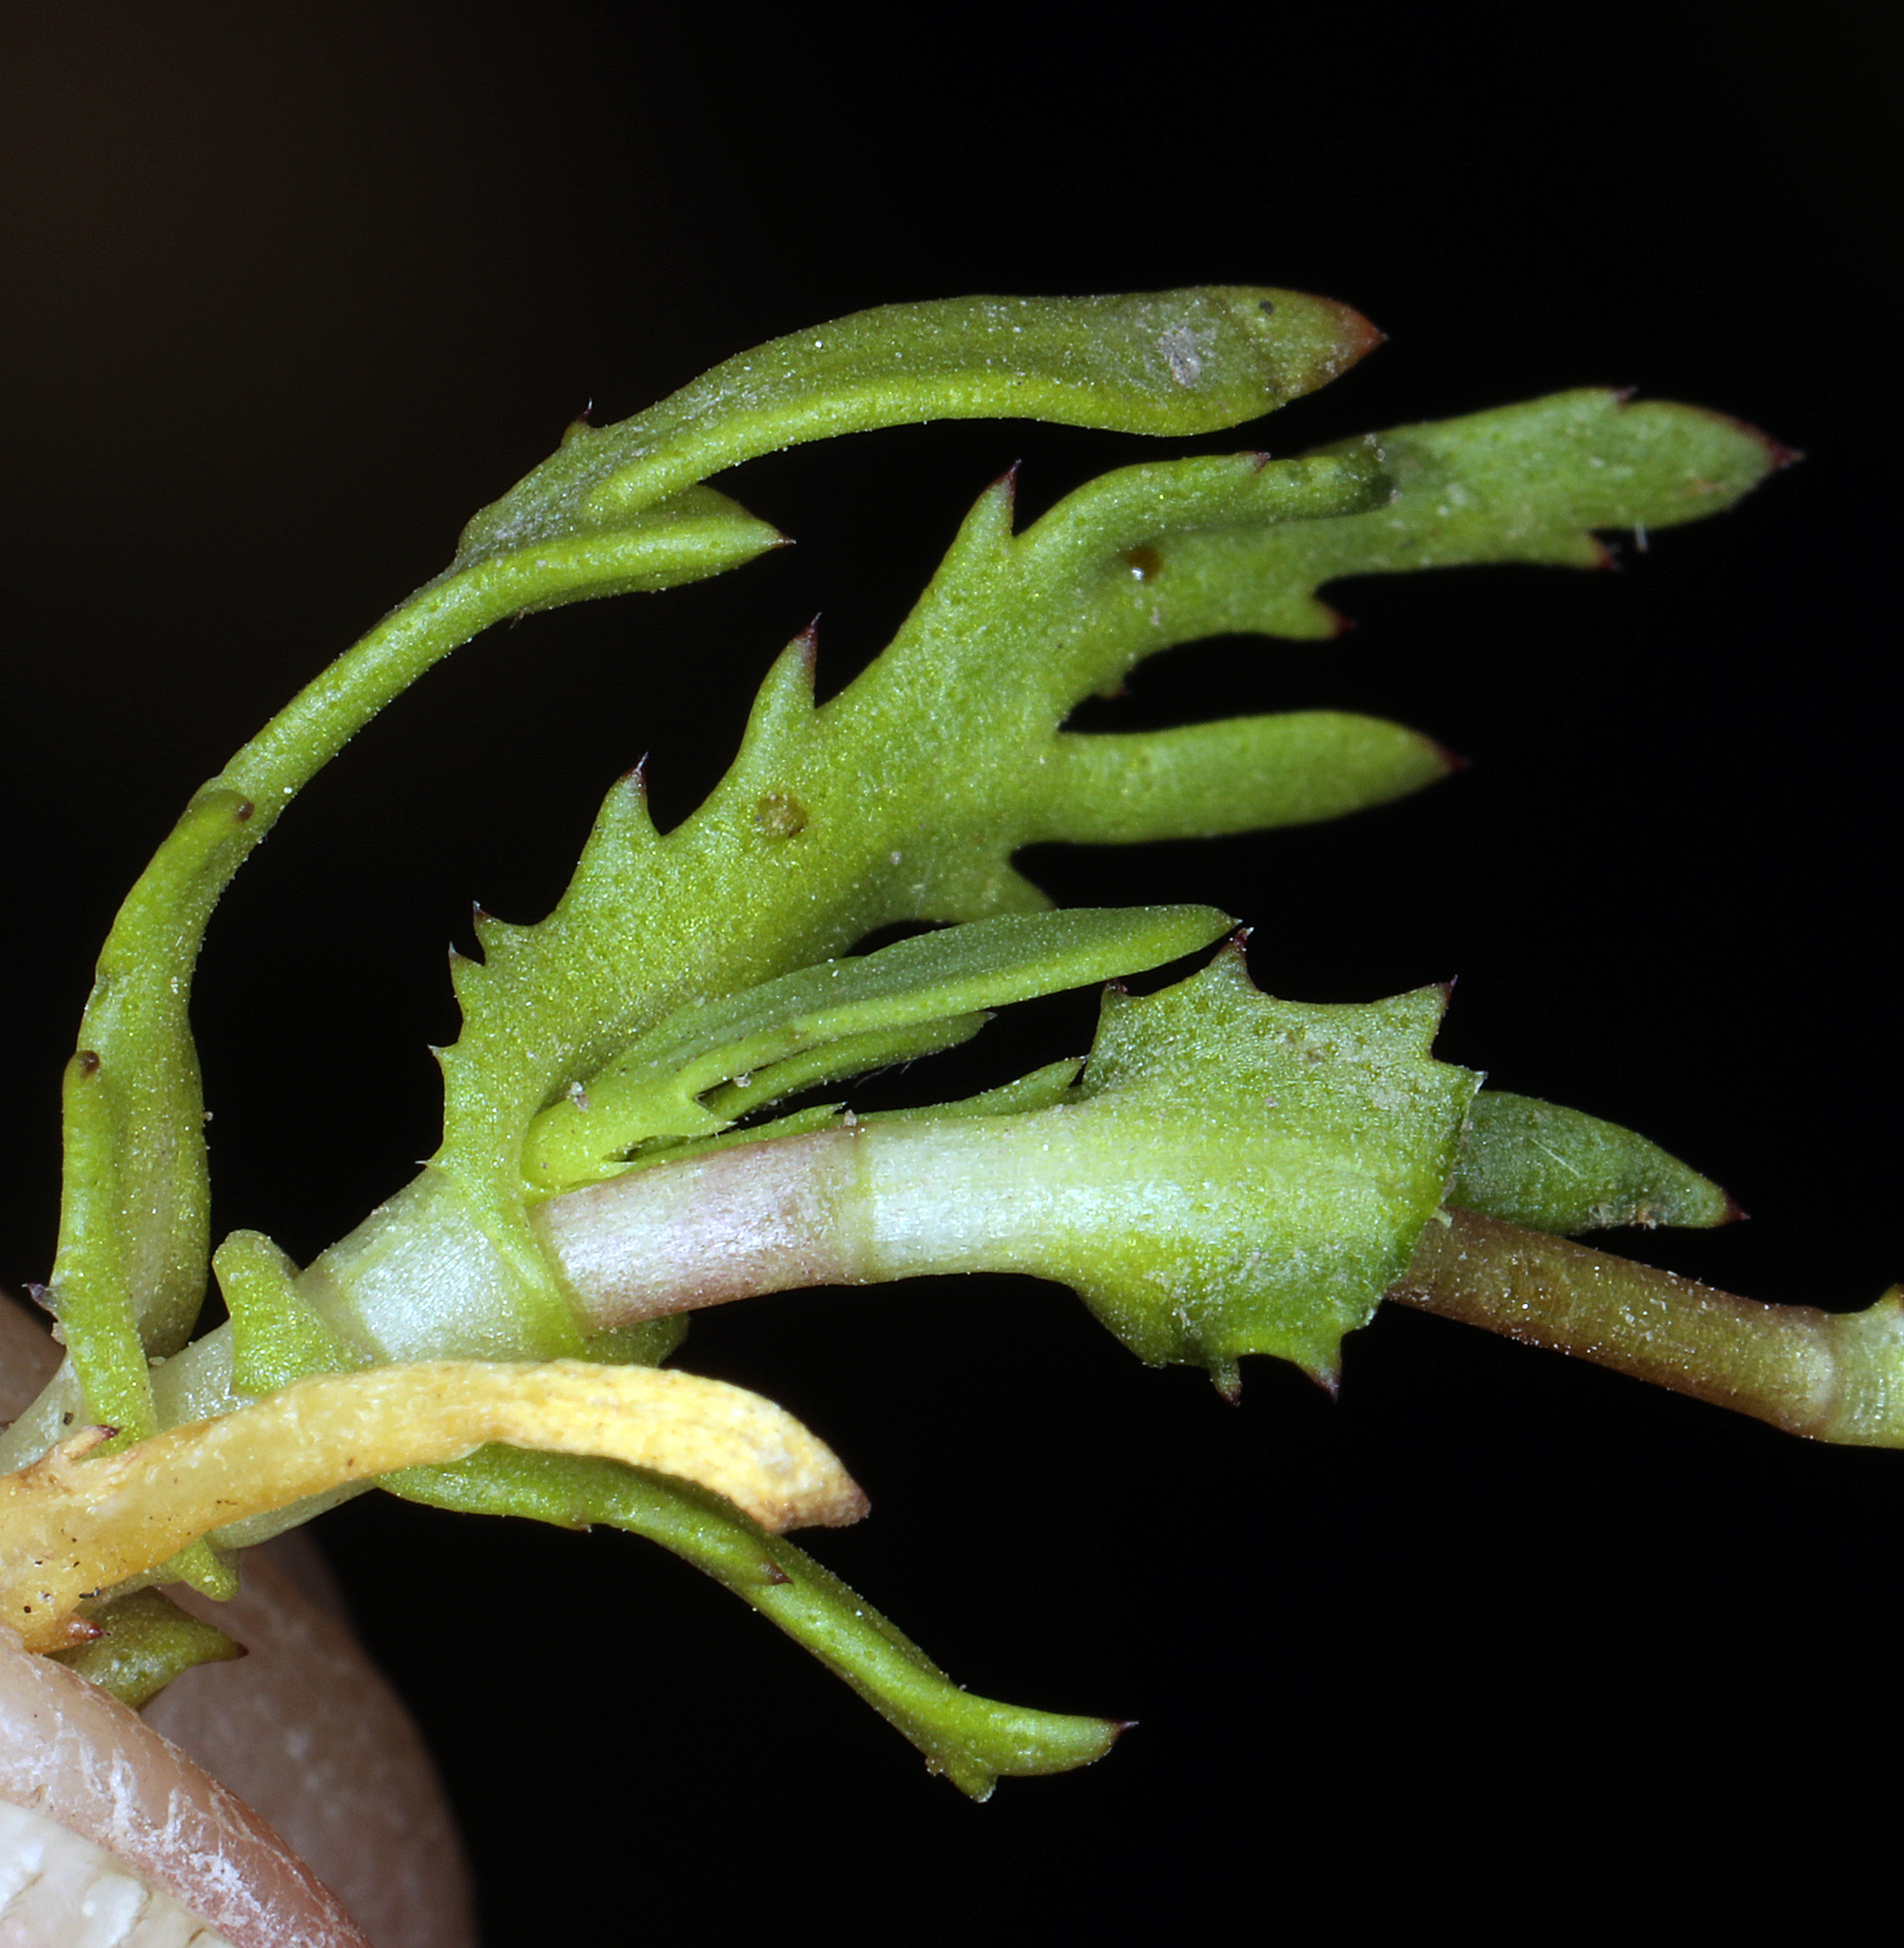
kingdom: Plantae
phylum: Tracheophyta
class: Magnoliopsida
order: Asterales
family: Asteraceae
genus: Cotula
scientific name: Cotula coronopifolia
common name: Buttonweed
